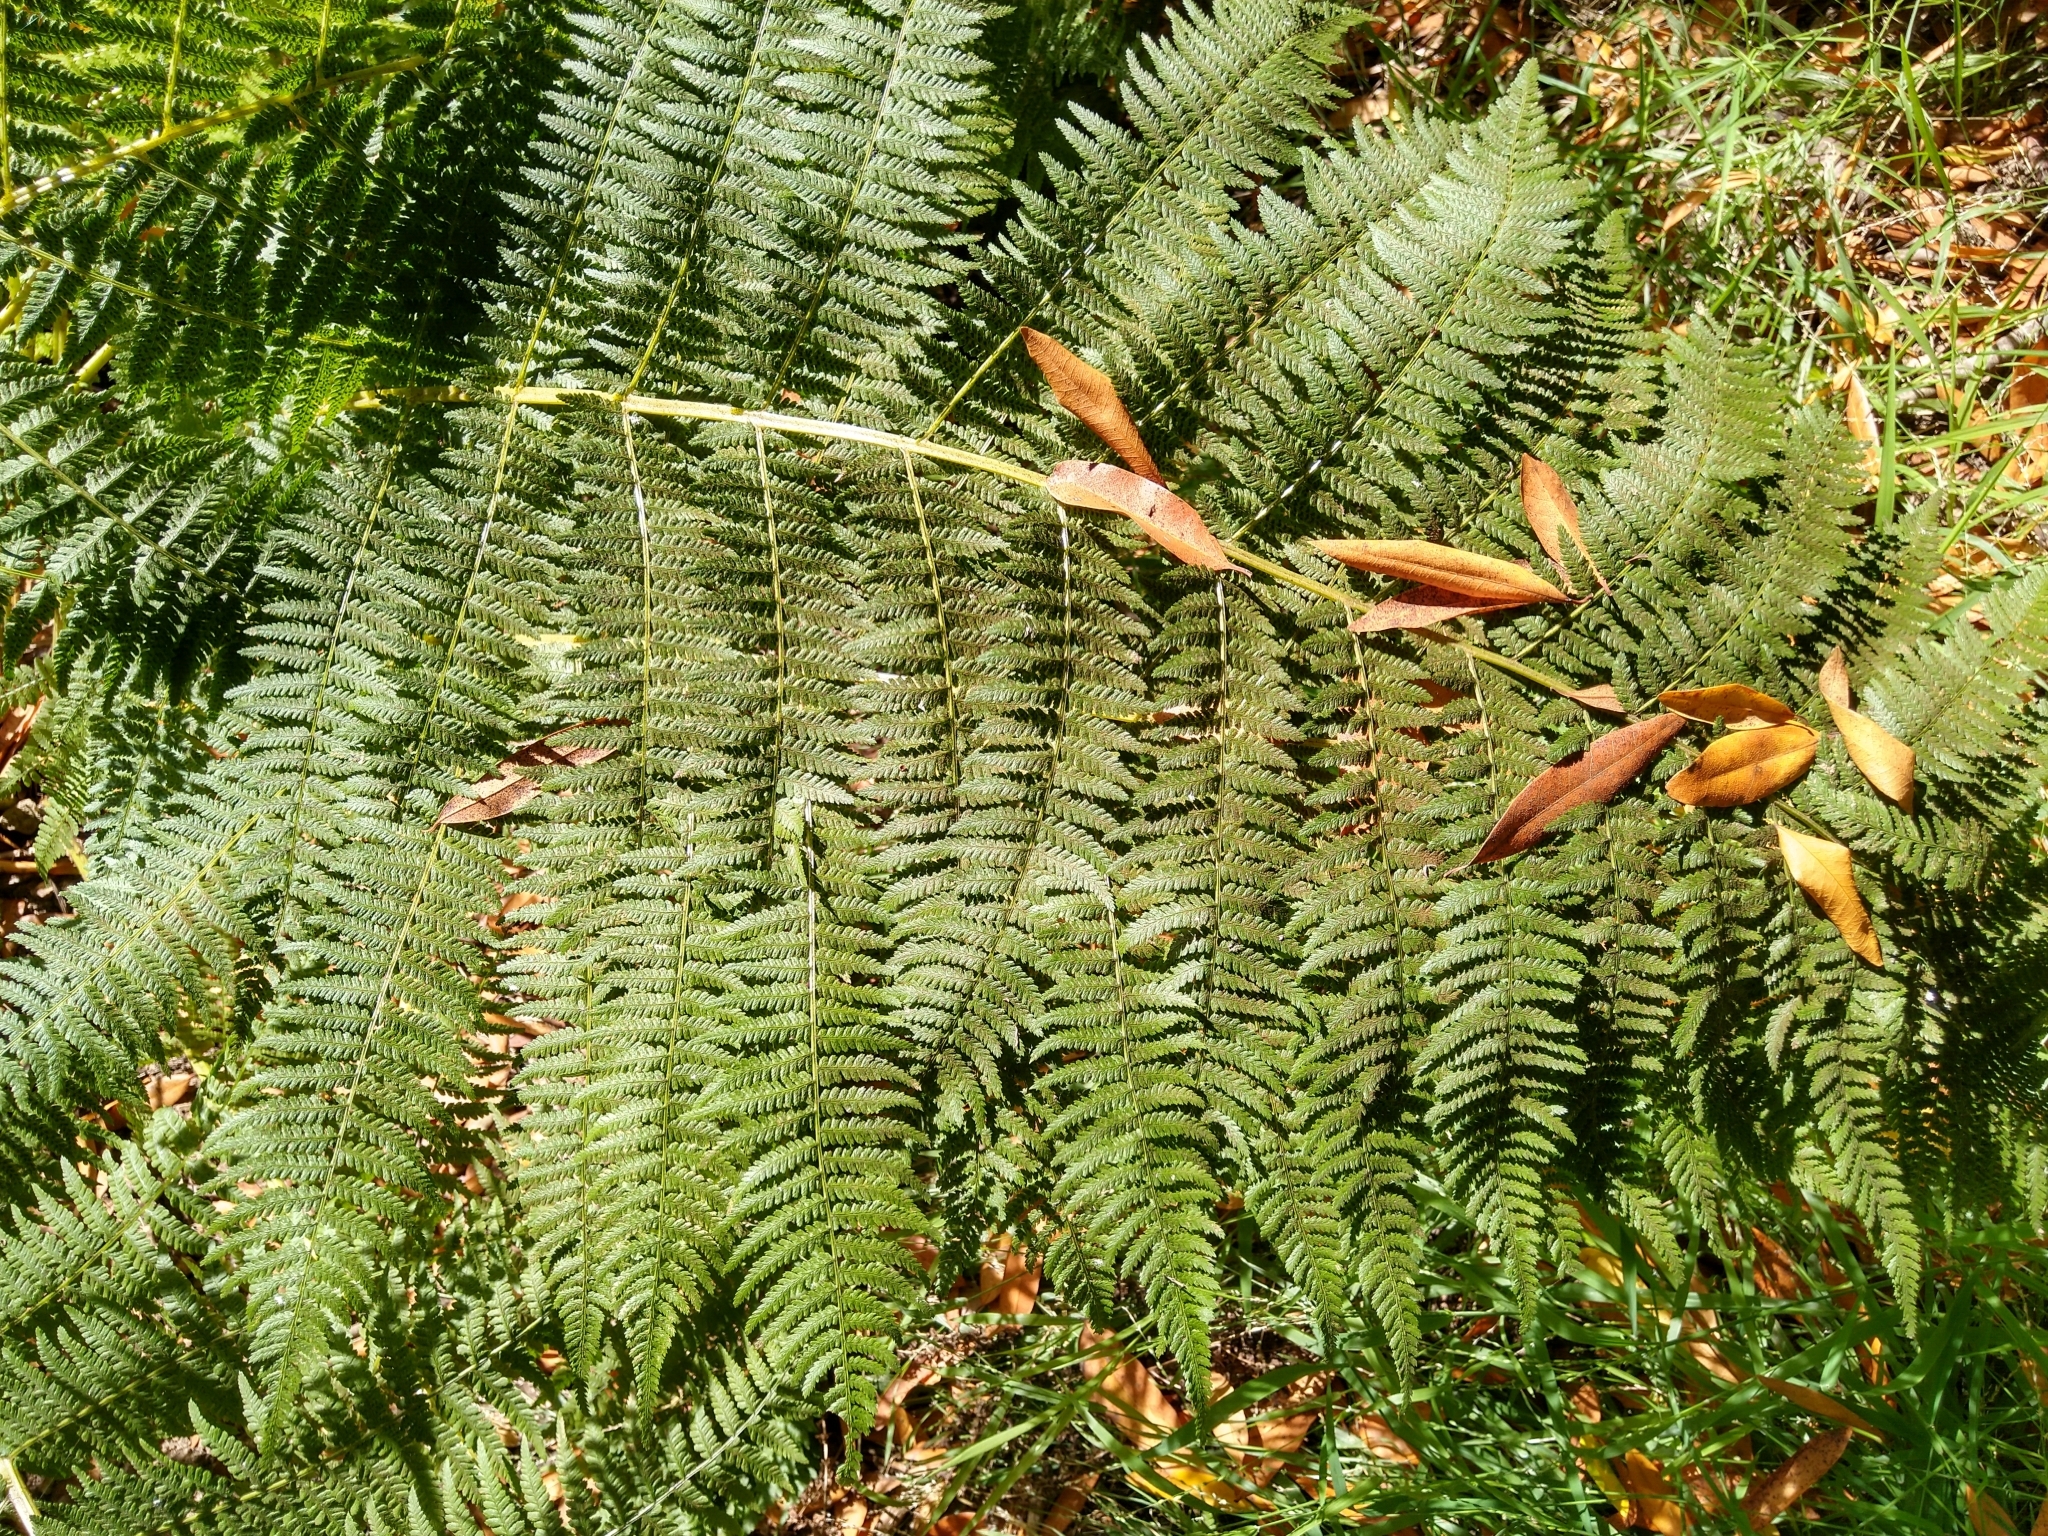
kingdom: Plantae
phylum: Tracheophyta
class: Polypodiopsida
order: Polypodiales
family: Athyriaceae
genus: Athyrium
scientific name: Athyrium filix-femina
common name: Lady fern
